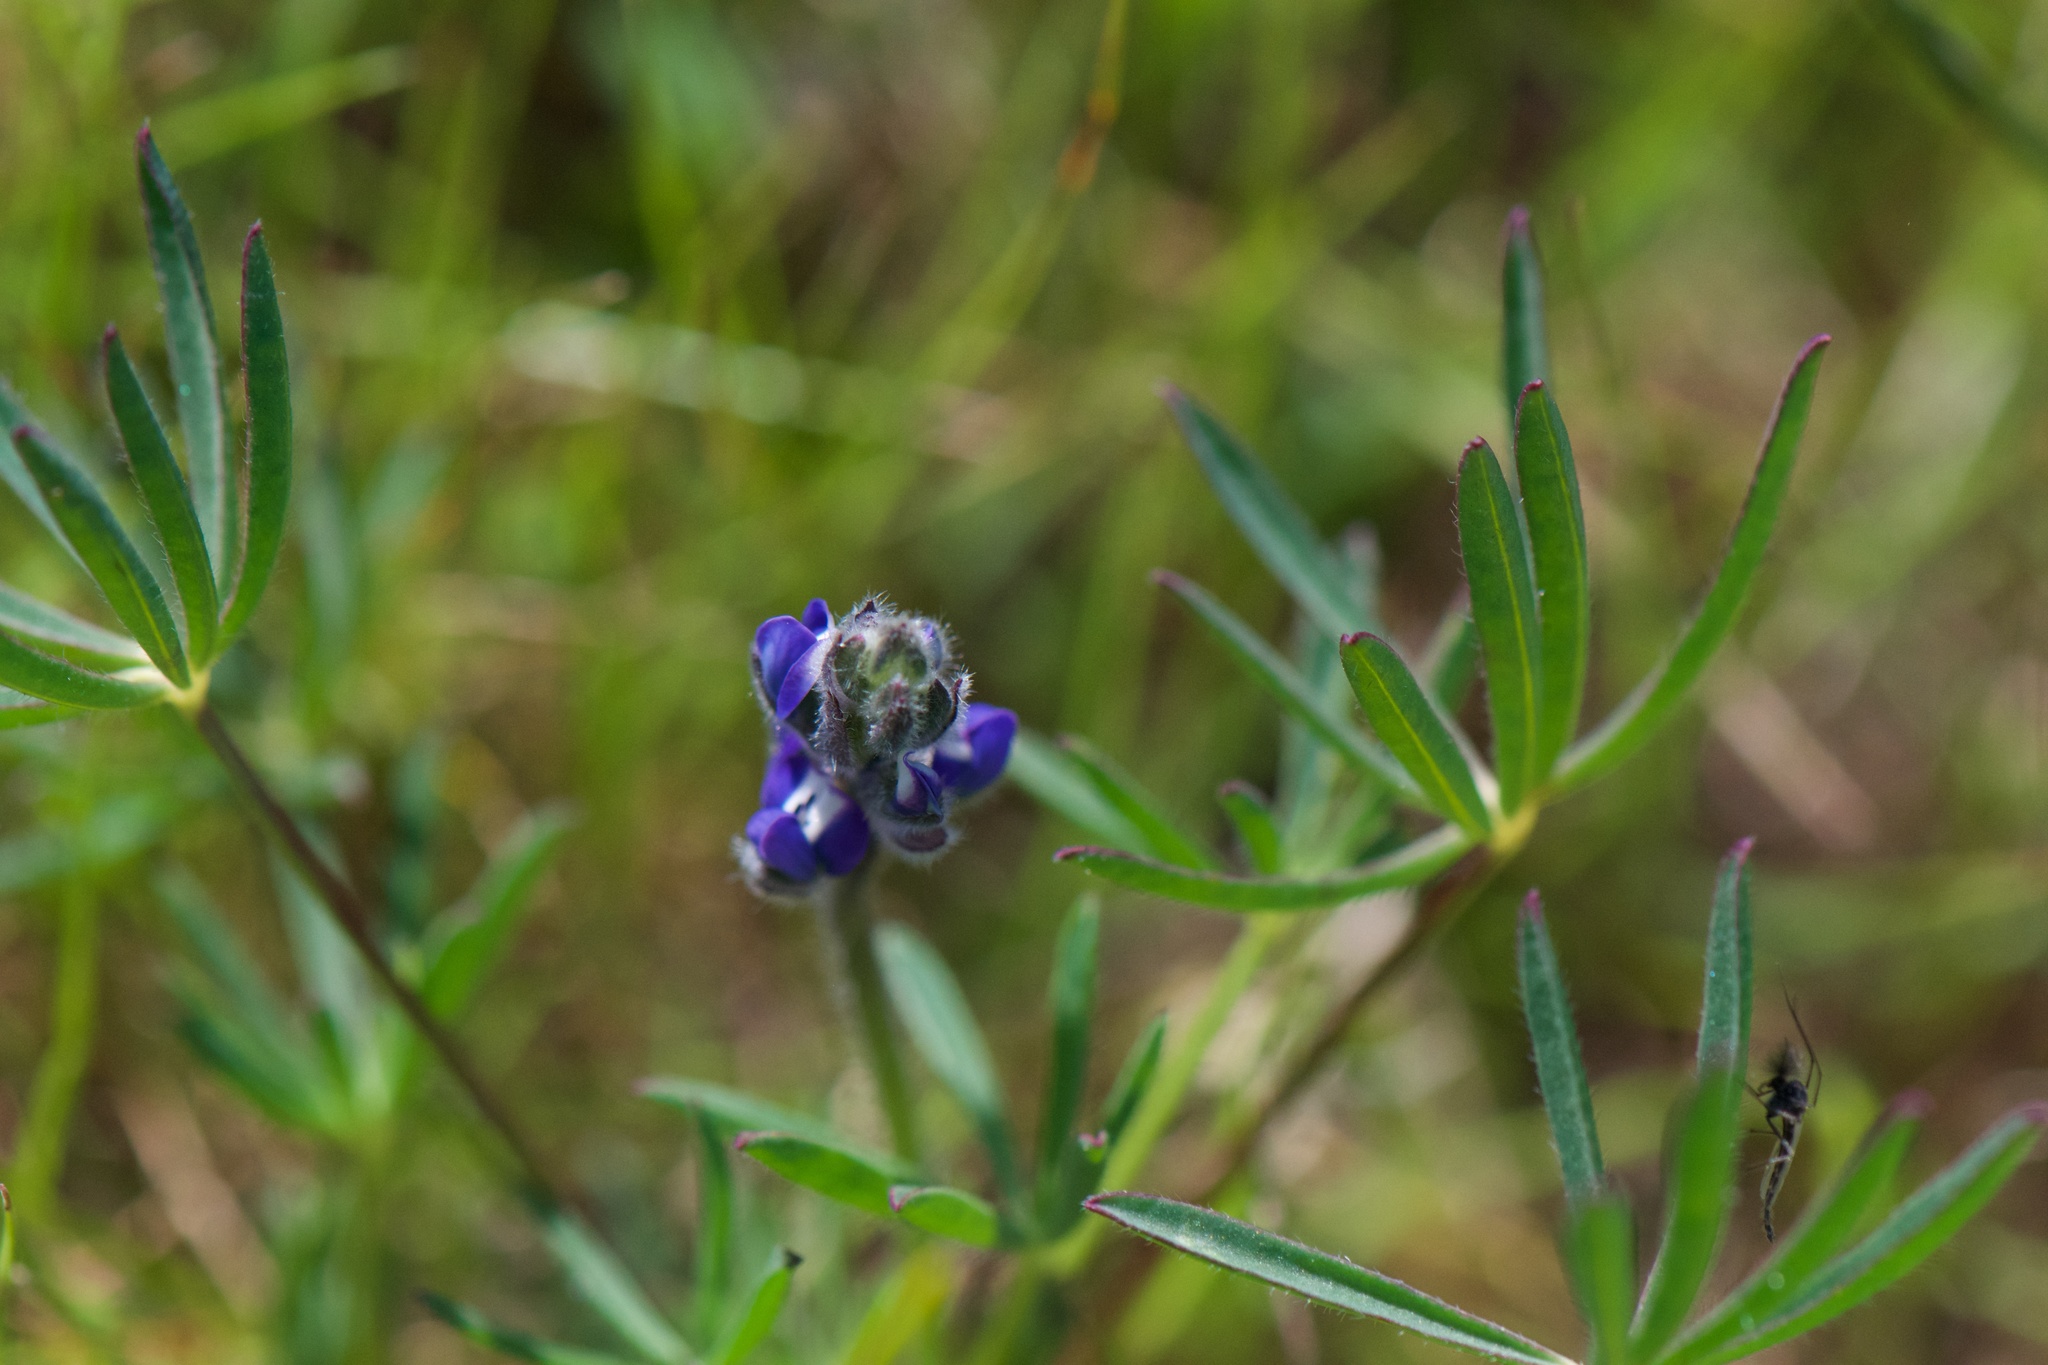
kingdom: Plantae
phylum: Tracheophyta
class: Magnoliopsida
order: Fabales
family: Fabaceae
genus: Lupinus
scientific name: Lupinus bicolor
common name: Miniature lupine
